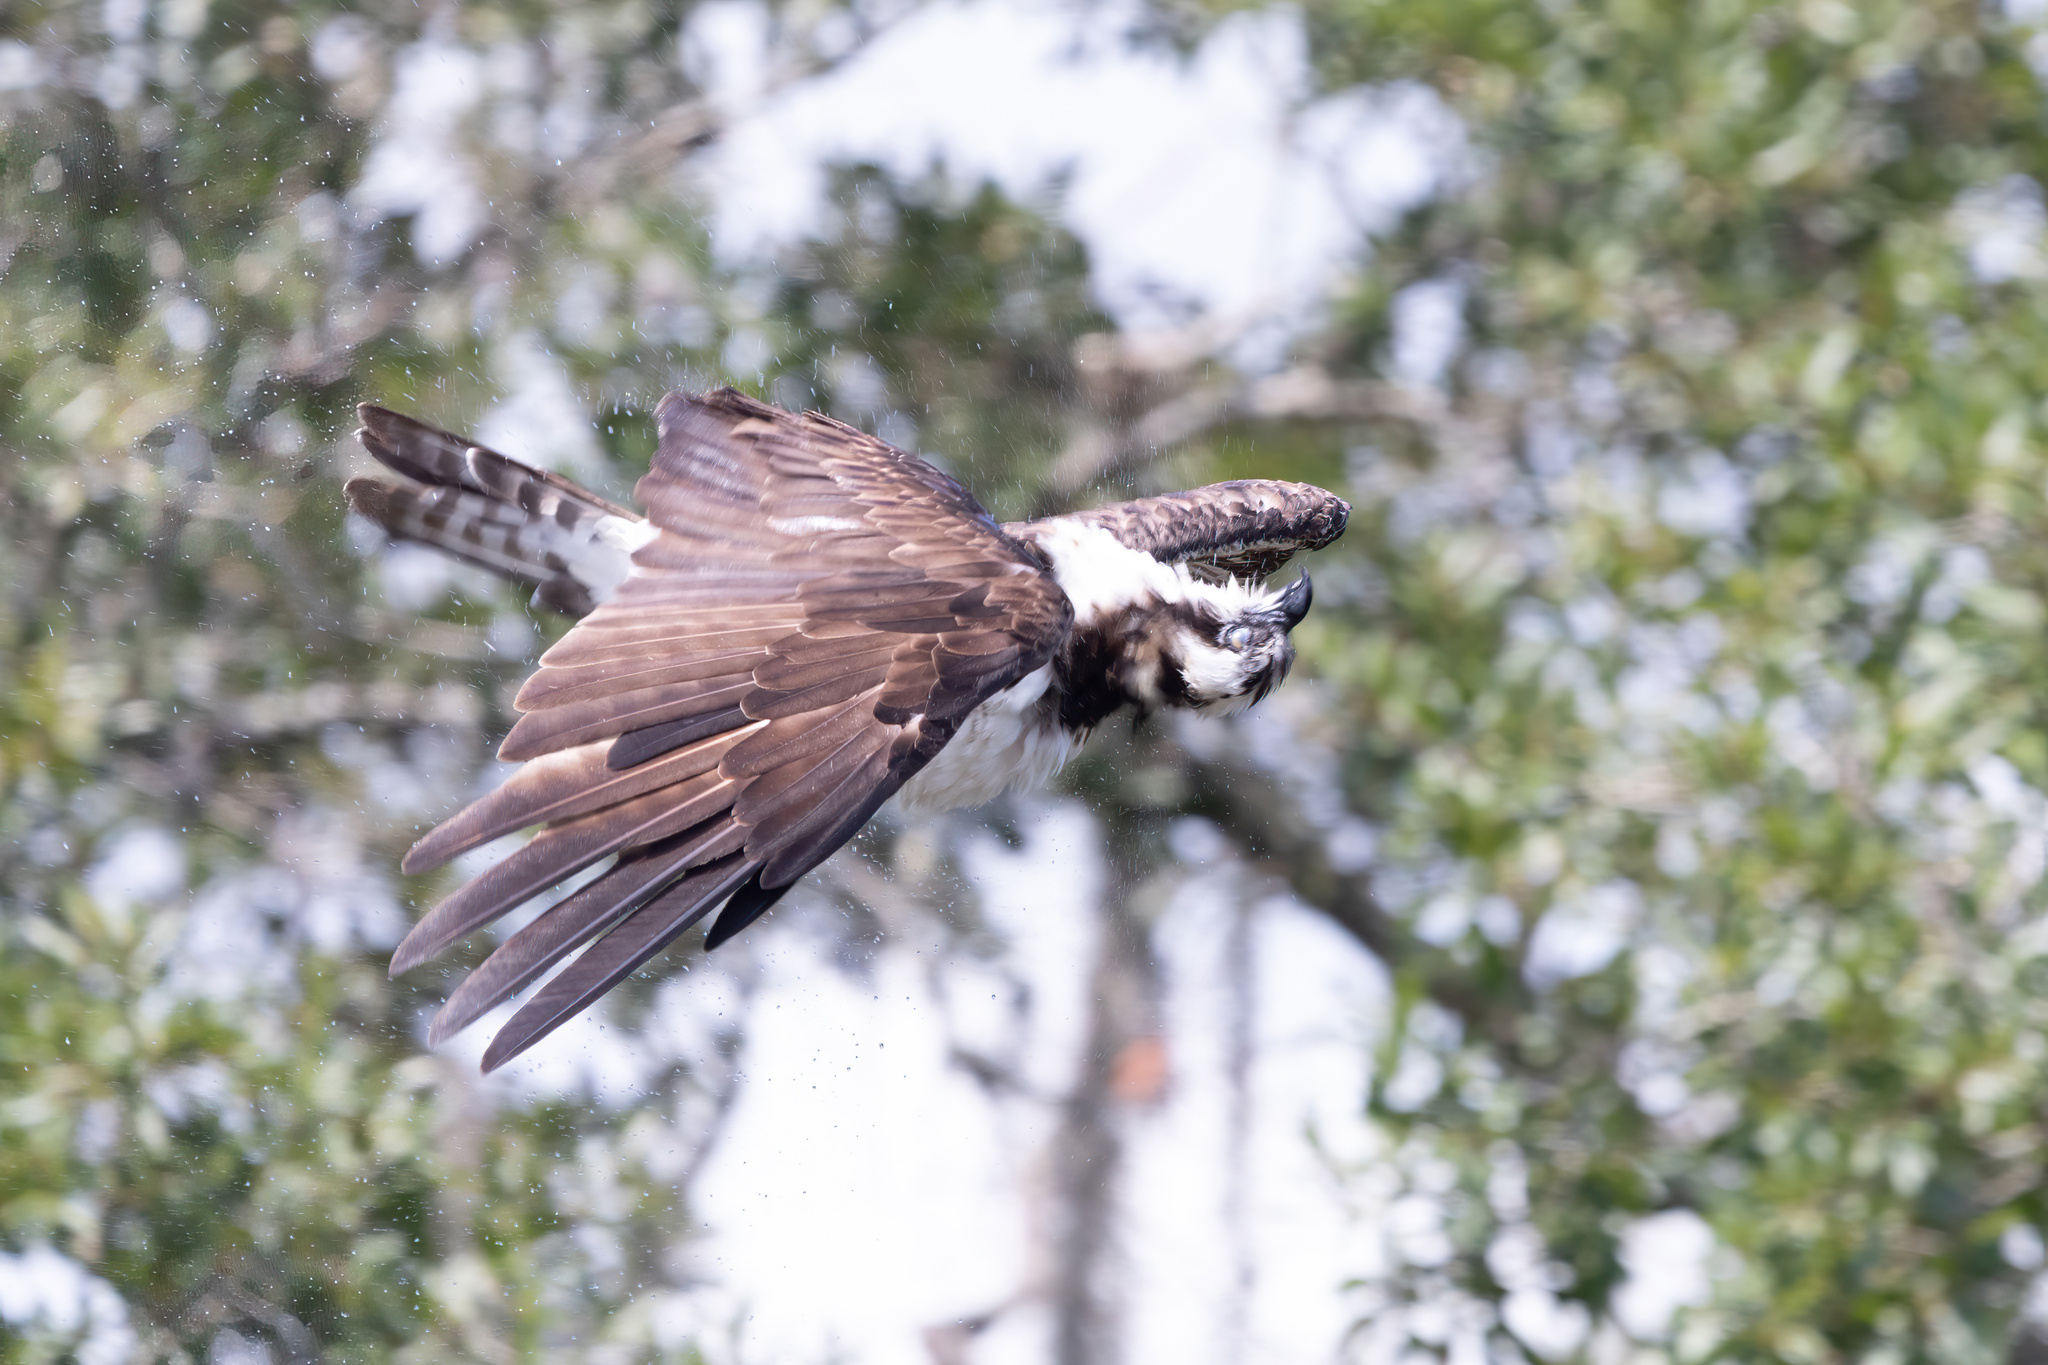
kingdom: Animalia
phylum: Chordata
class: Aves
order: Accipitriformes
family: Pandionidae
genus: Pandion
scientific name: Pandion haliaetus
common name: Osprey
